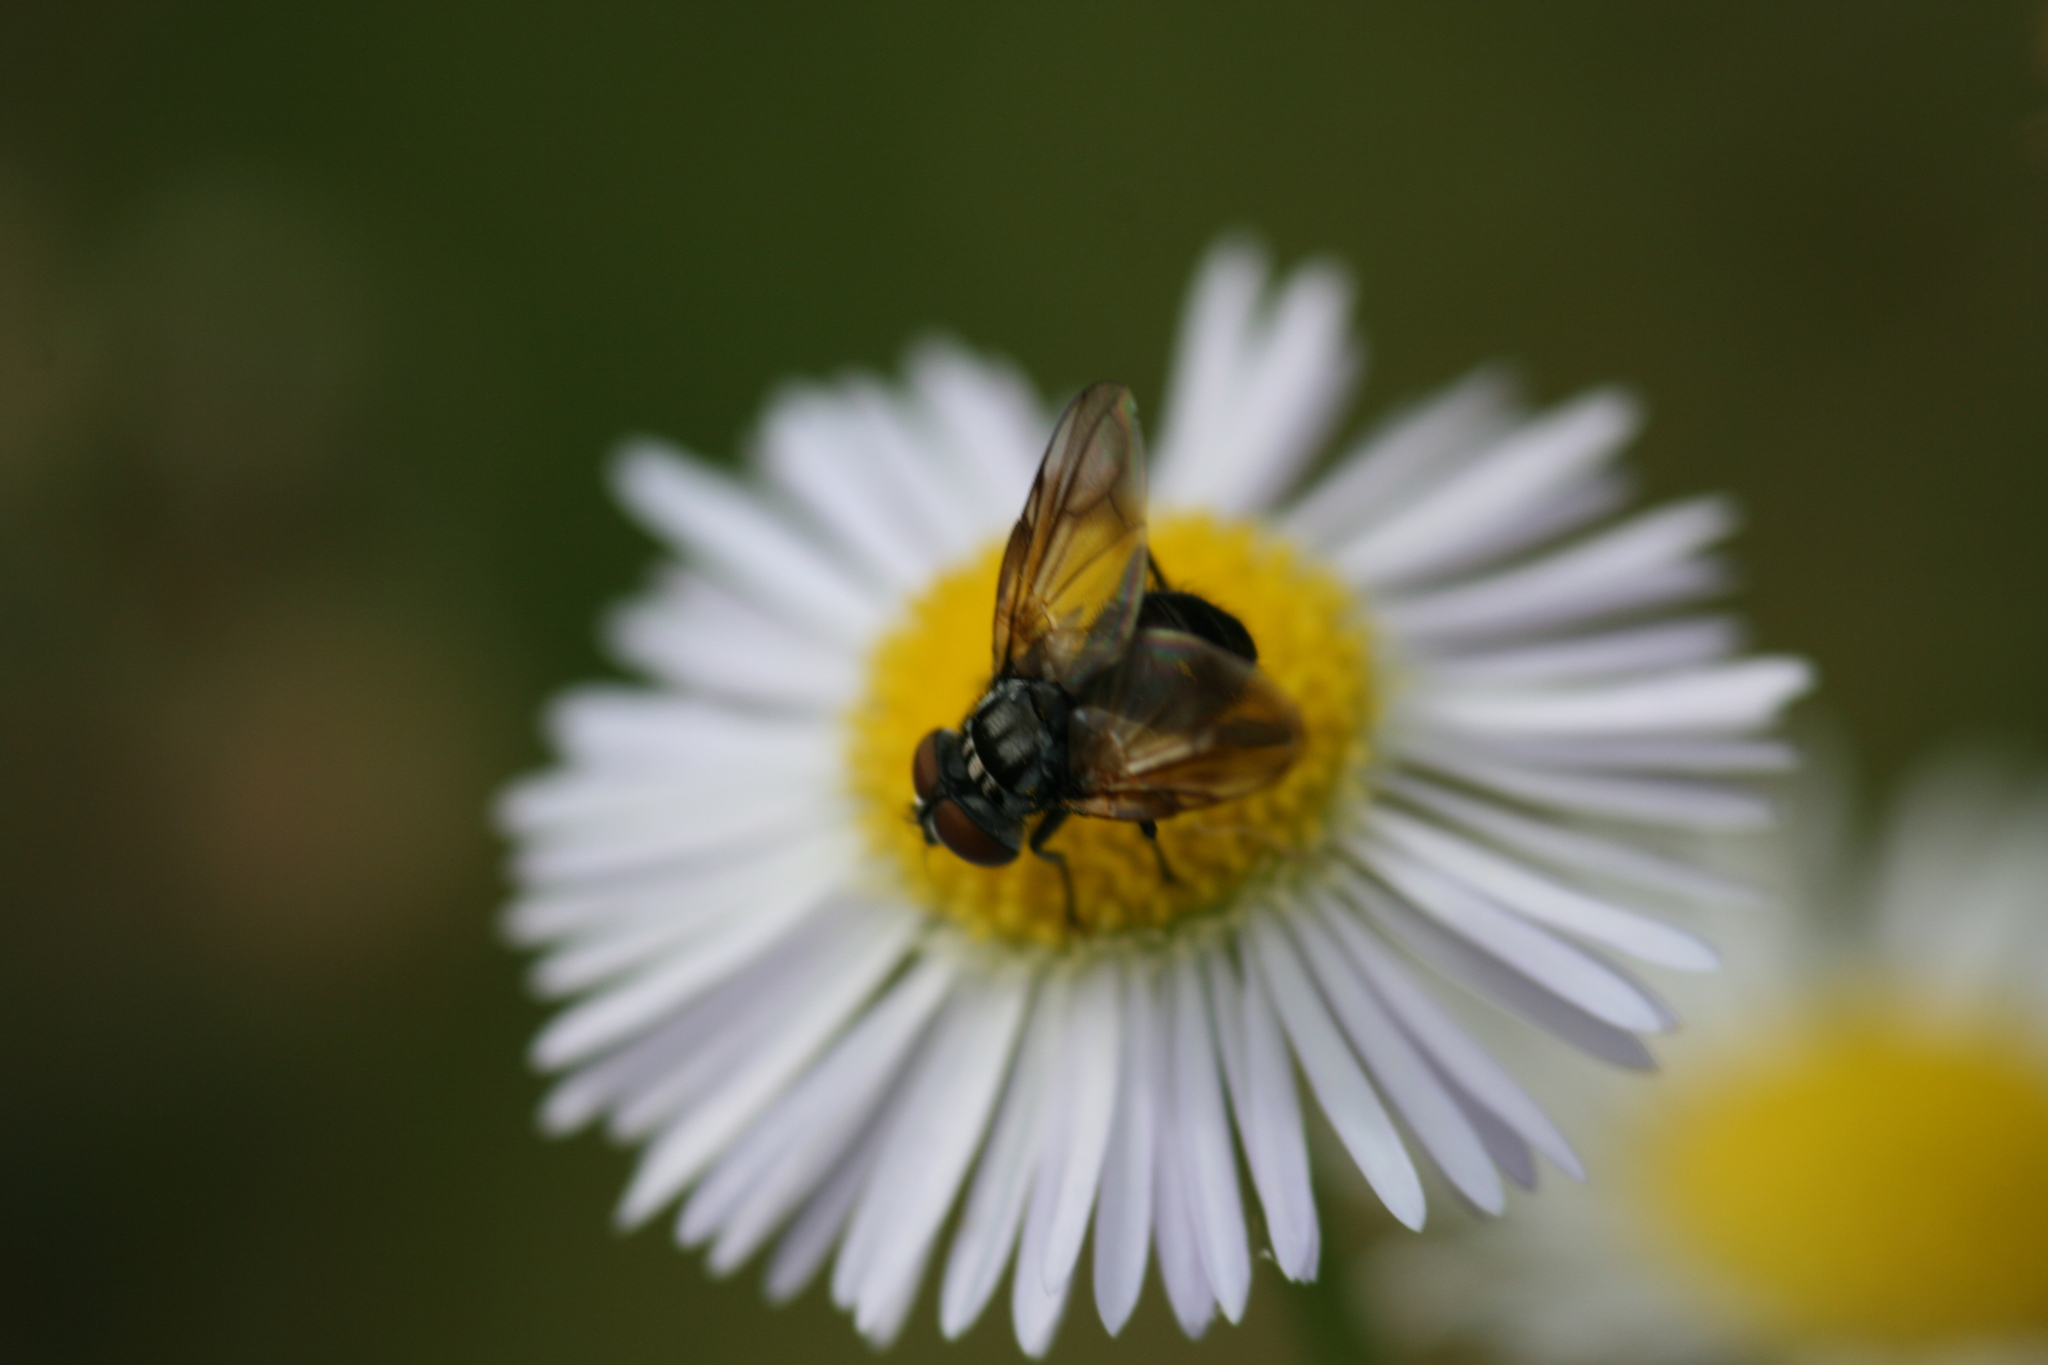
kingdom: Animalia
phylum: Arthropoda
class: Insecta
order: Diptera
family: Tachinidae
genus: Phasia
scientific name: Phasia obesa
